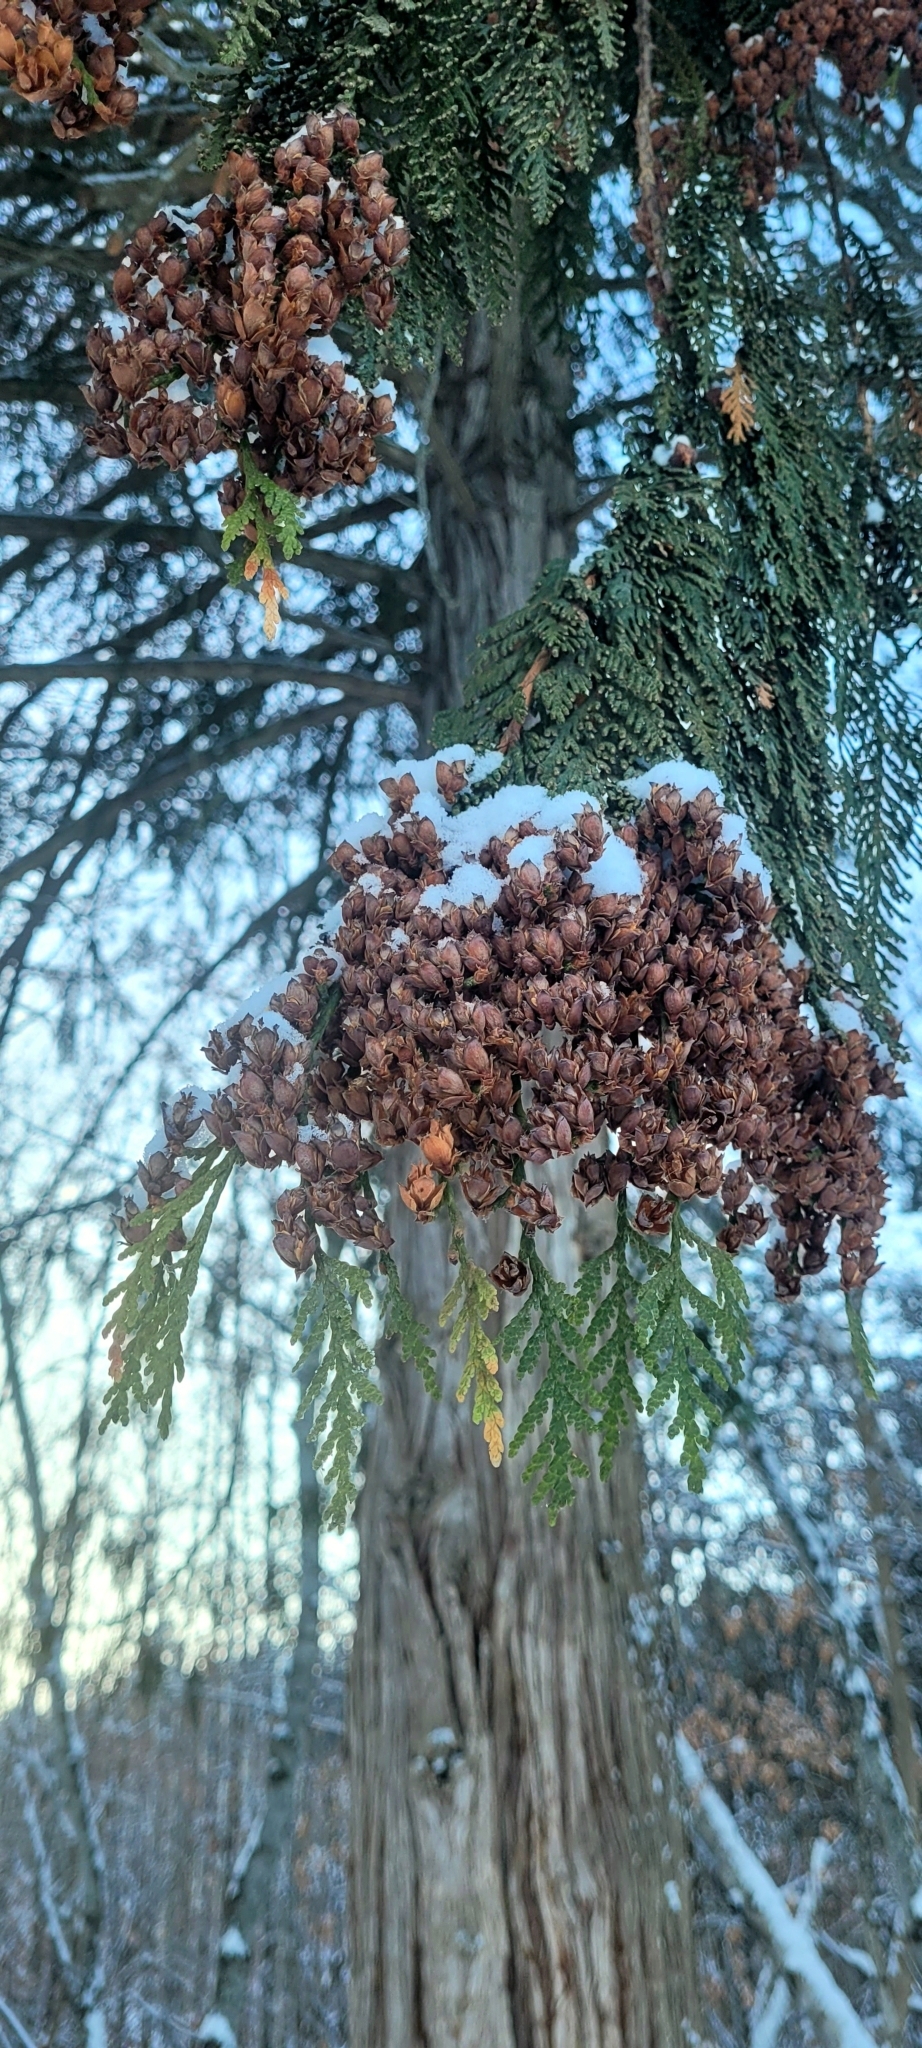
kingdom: Plantae
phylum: Tracheophyta
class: Pinopsida
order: Pinales
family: Cupressaceae
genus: Thuja
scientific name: Thuja plicata
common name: Western red-cedar
